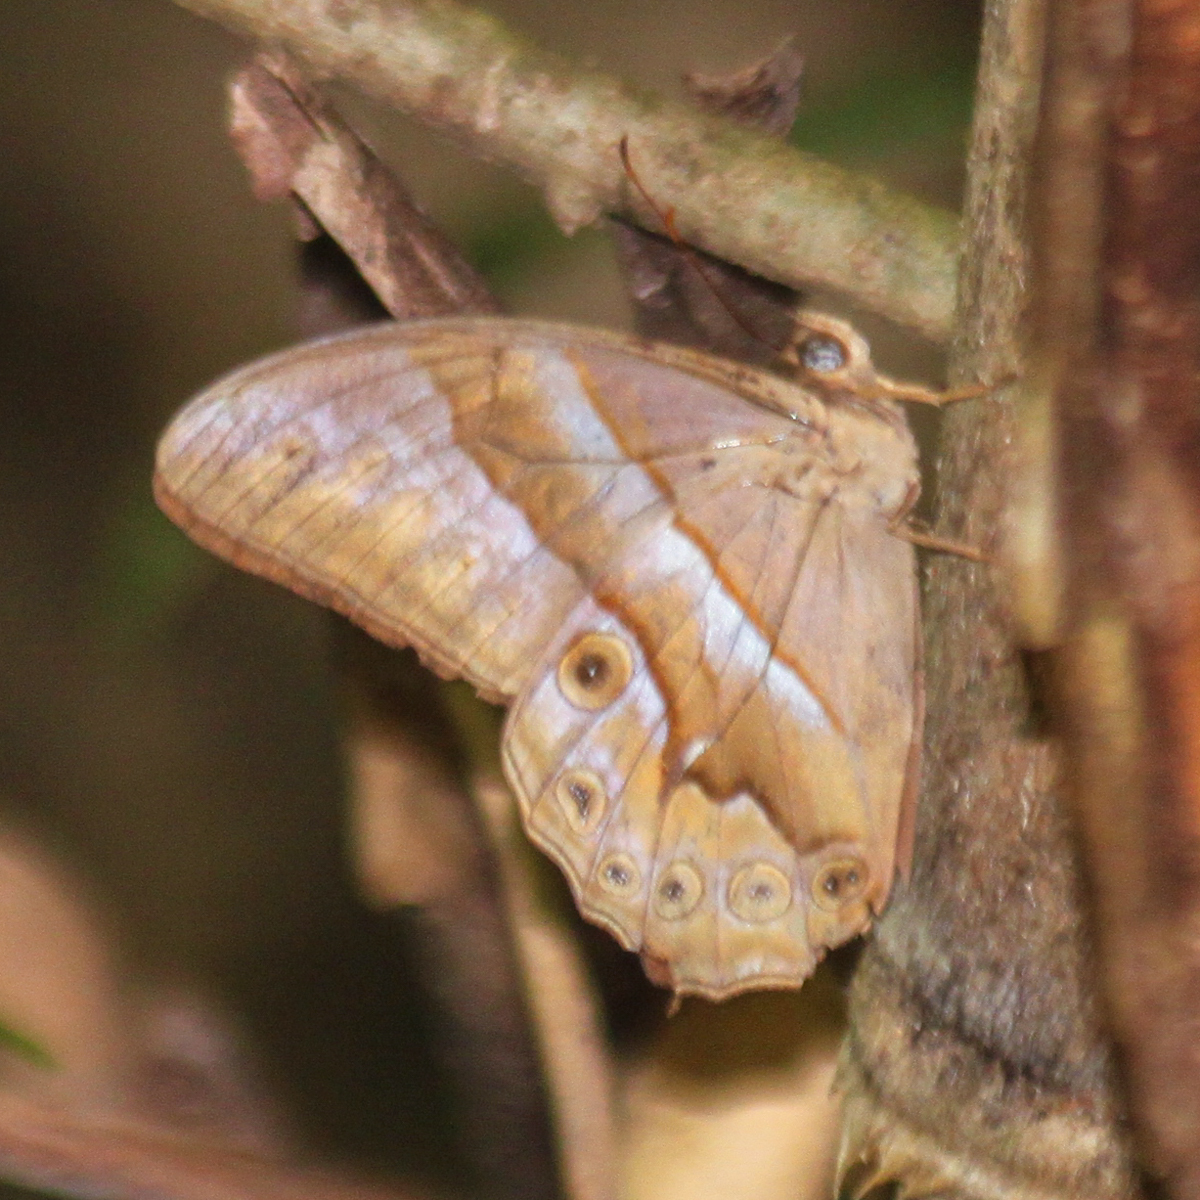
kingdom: Animalia
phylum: Arthropoda
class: Insecta
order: Lepidoptera
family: Nymphalidae
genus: Lethe
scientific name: Lethe mekara
